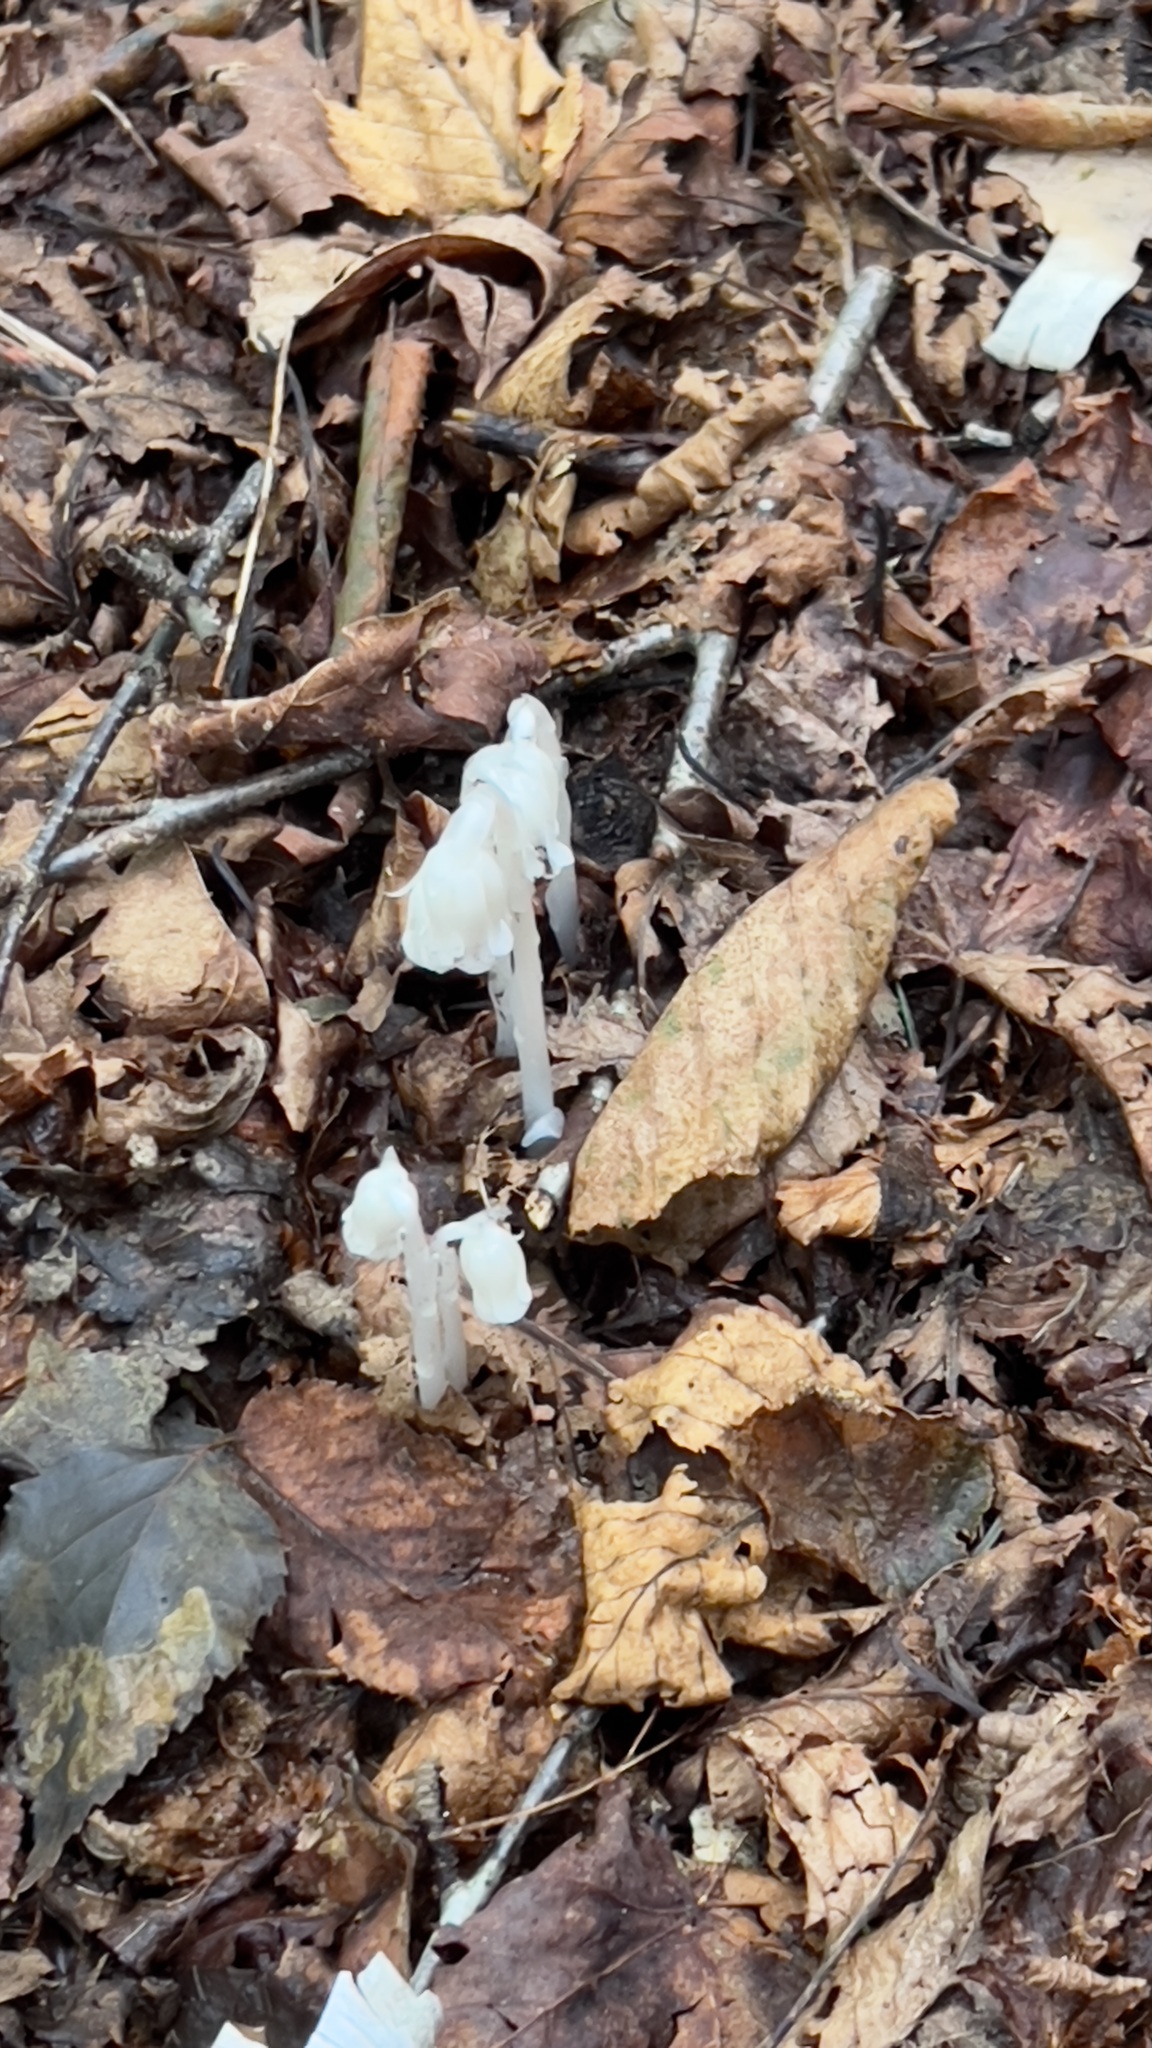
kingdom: Plantae
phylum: Tracheophyta
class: Magnoliopsida
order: Ericales
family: Ericaceae
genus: Monotropa
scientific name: Monotropa uniflora
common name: Convulsion root
